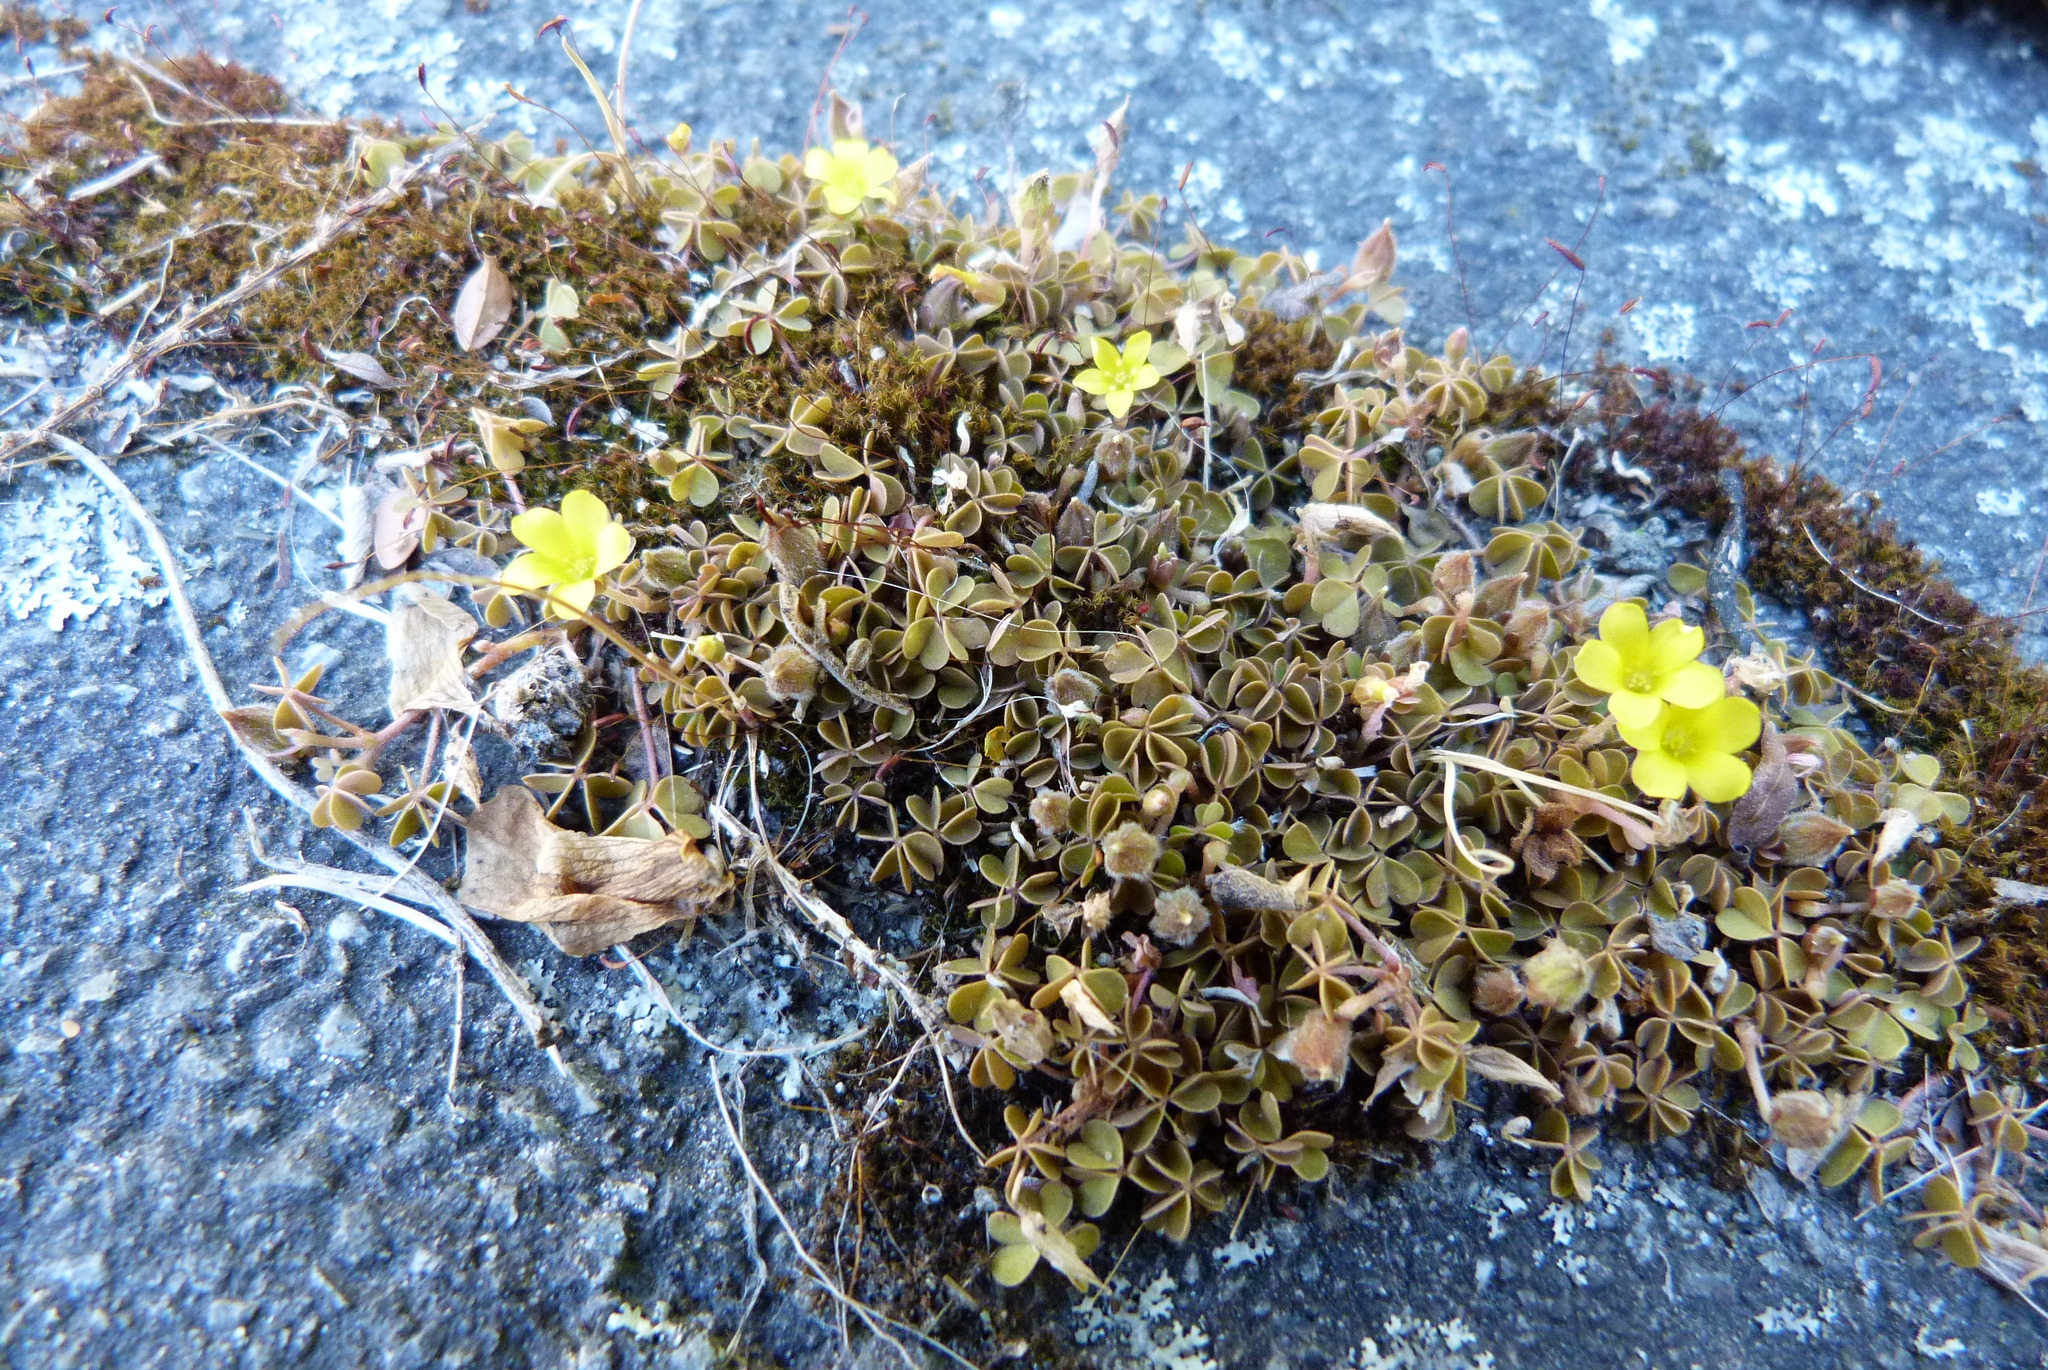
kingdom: Plantae
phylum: Tracheophyta
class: Magnoliopsida
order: Oxalidales
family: Oxalidaceae
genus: Oxalis
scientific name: Oxalis exilis
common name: Least yellow-sorrel
